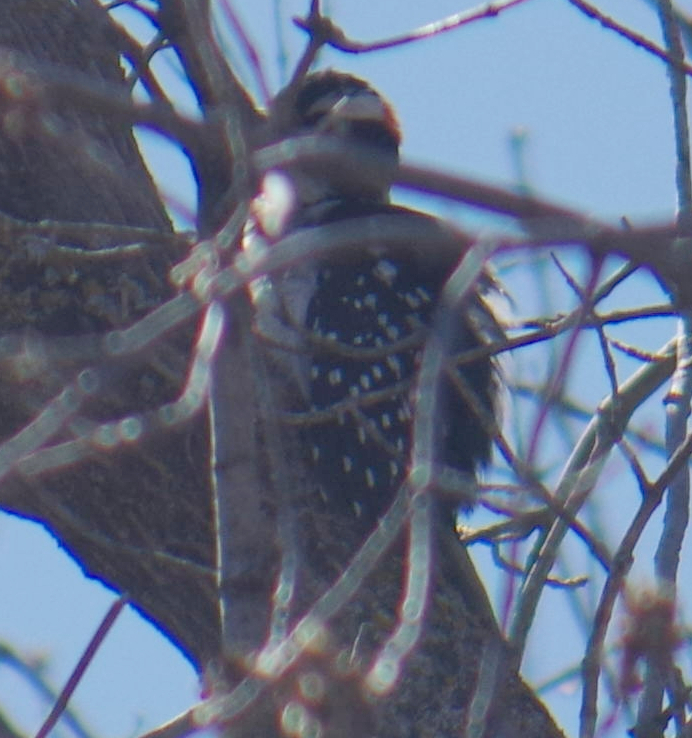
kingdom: Animalia
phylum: Chordata
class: Aves
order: Piciformes
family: Picidae
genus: Leuconotopicus
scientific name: Leuconotopicus villosus
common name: Hairy woodpecker
